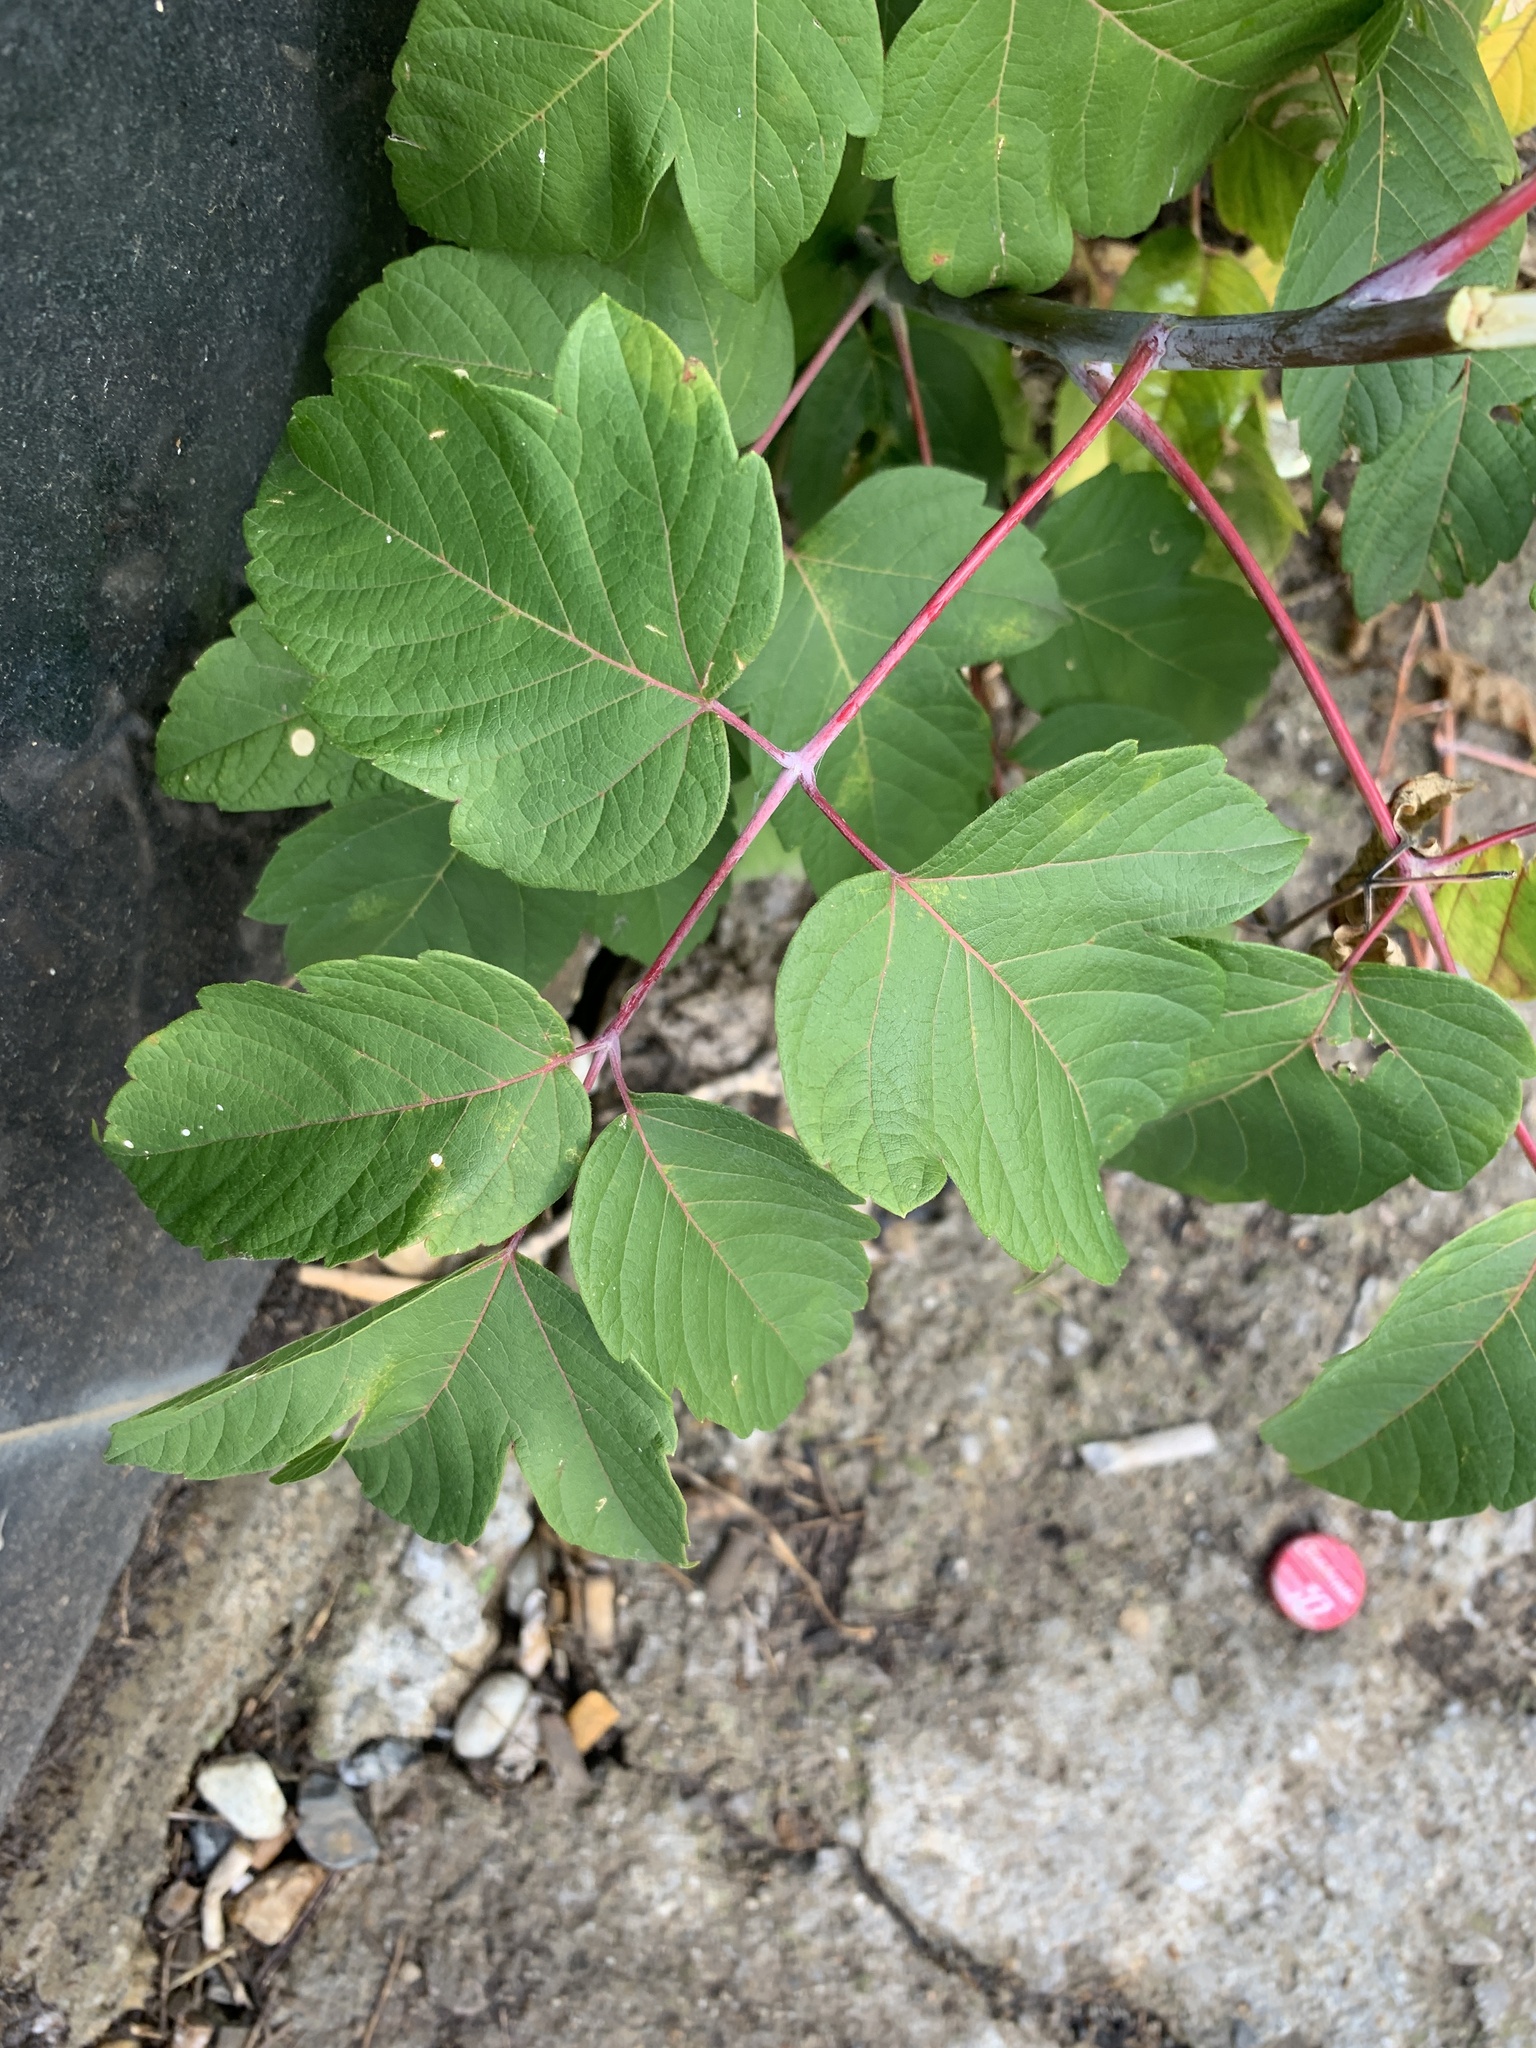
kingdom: Plantae
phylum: Tracheophyta
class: Magnoliopsida
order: Sapindales
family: Sapindaceae
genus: Acer
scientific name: Acer negundo
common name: Ashleaf maple
